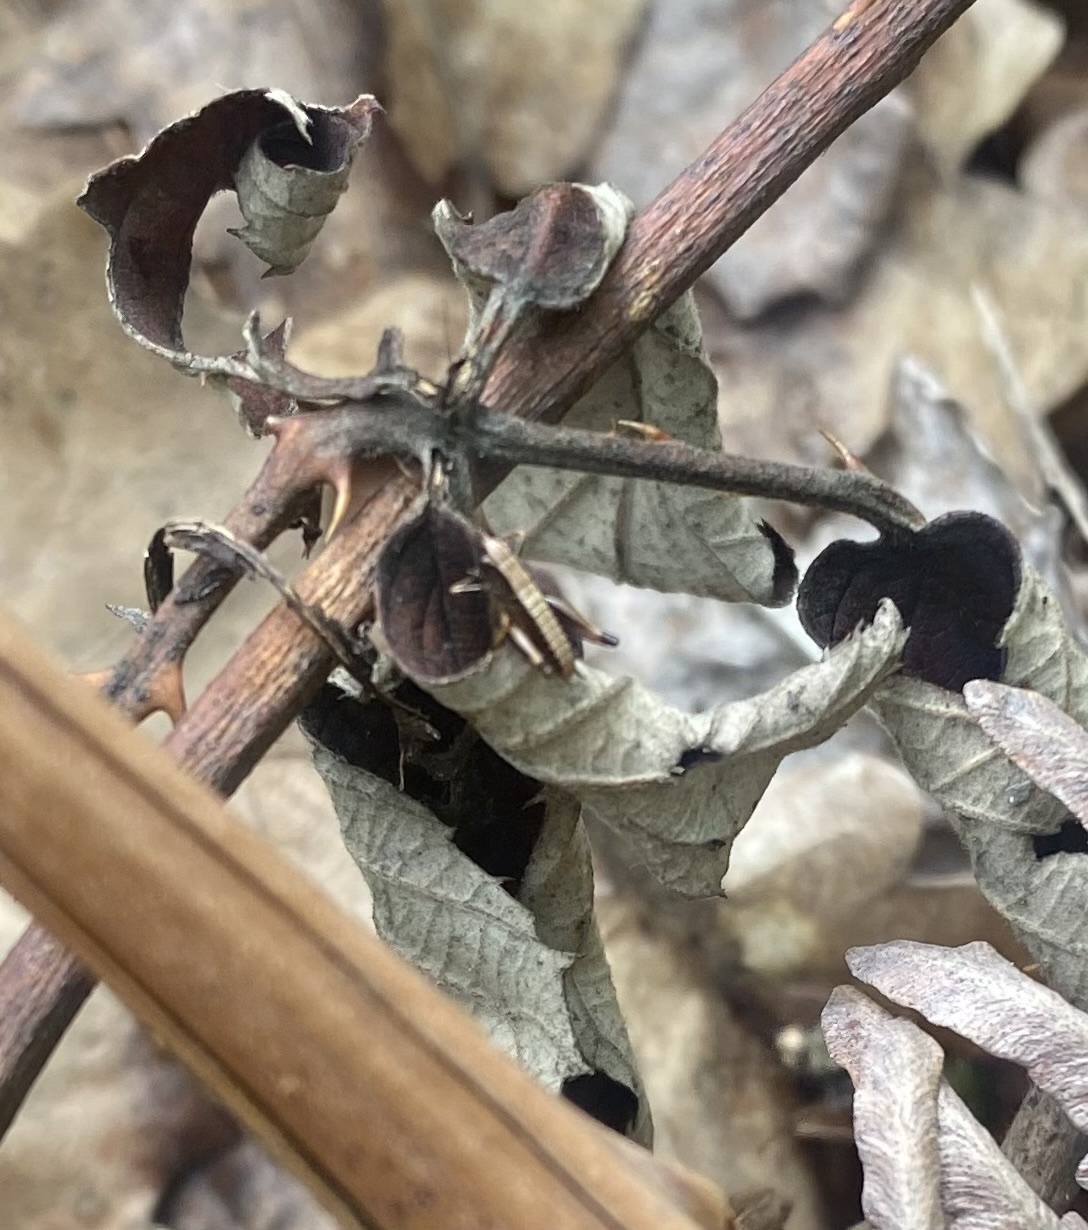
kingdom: Animalia
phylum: Arthropoda
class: Insecta
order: Orthoptera
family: Tettigoniidae
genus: Pholidoptera
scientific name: Pholidoptera griseoaptera
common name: Dark bush-cricket
